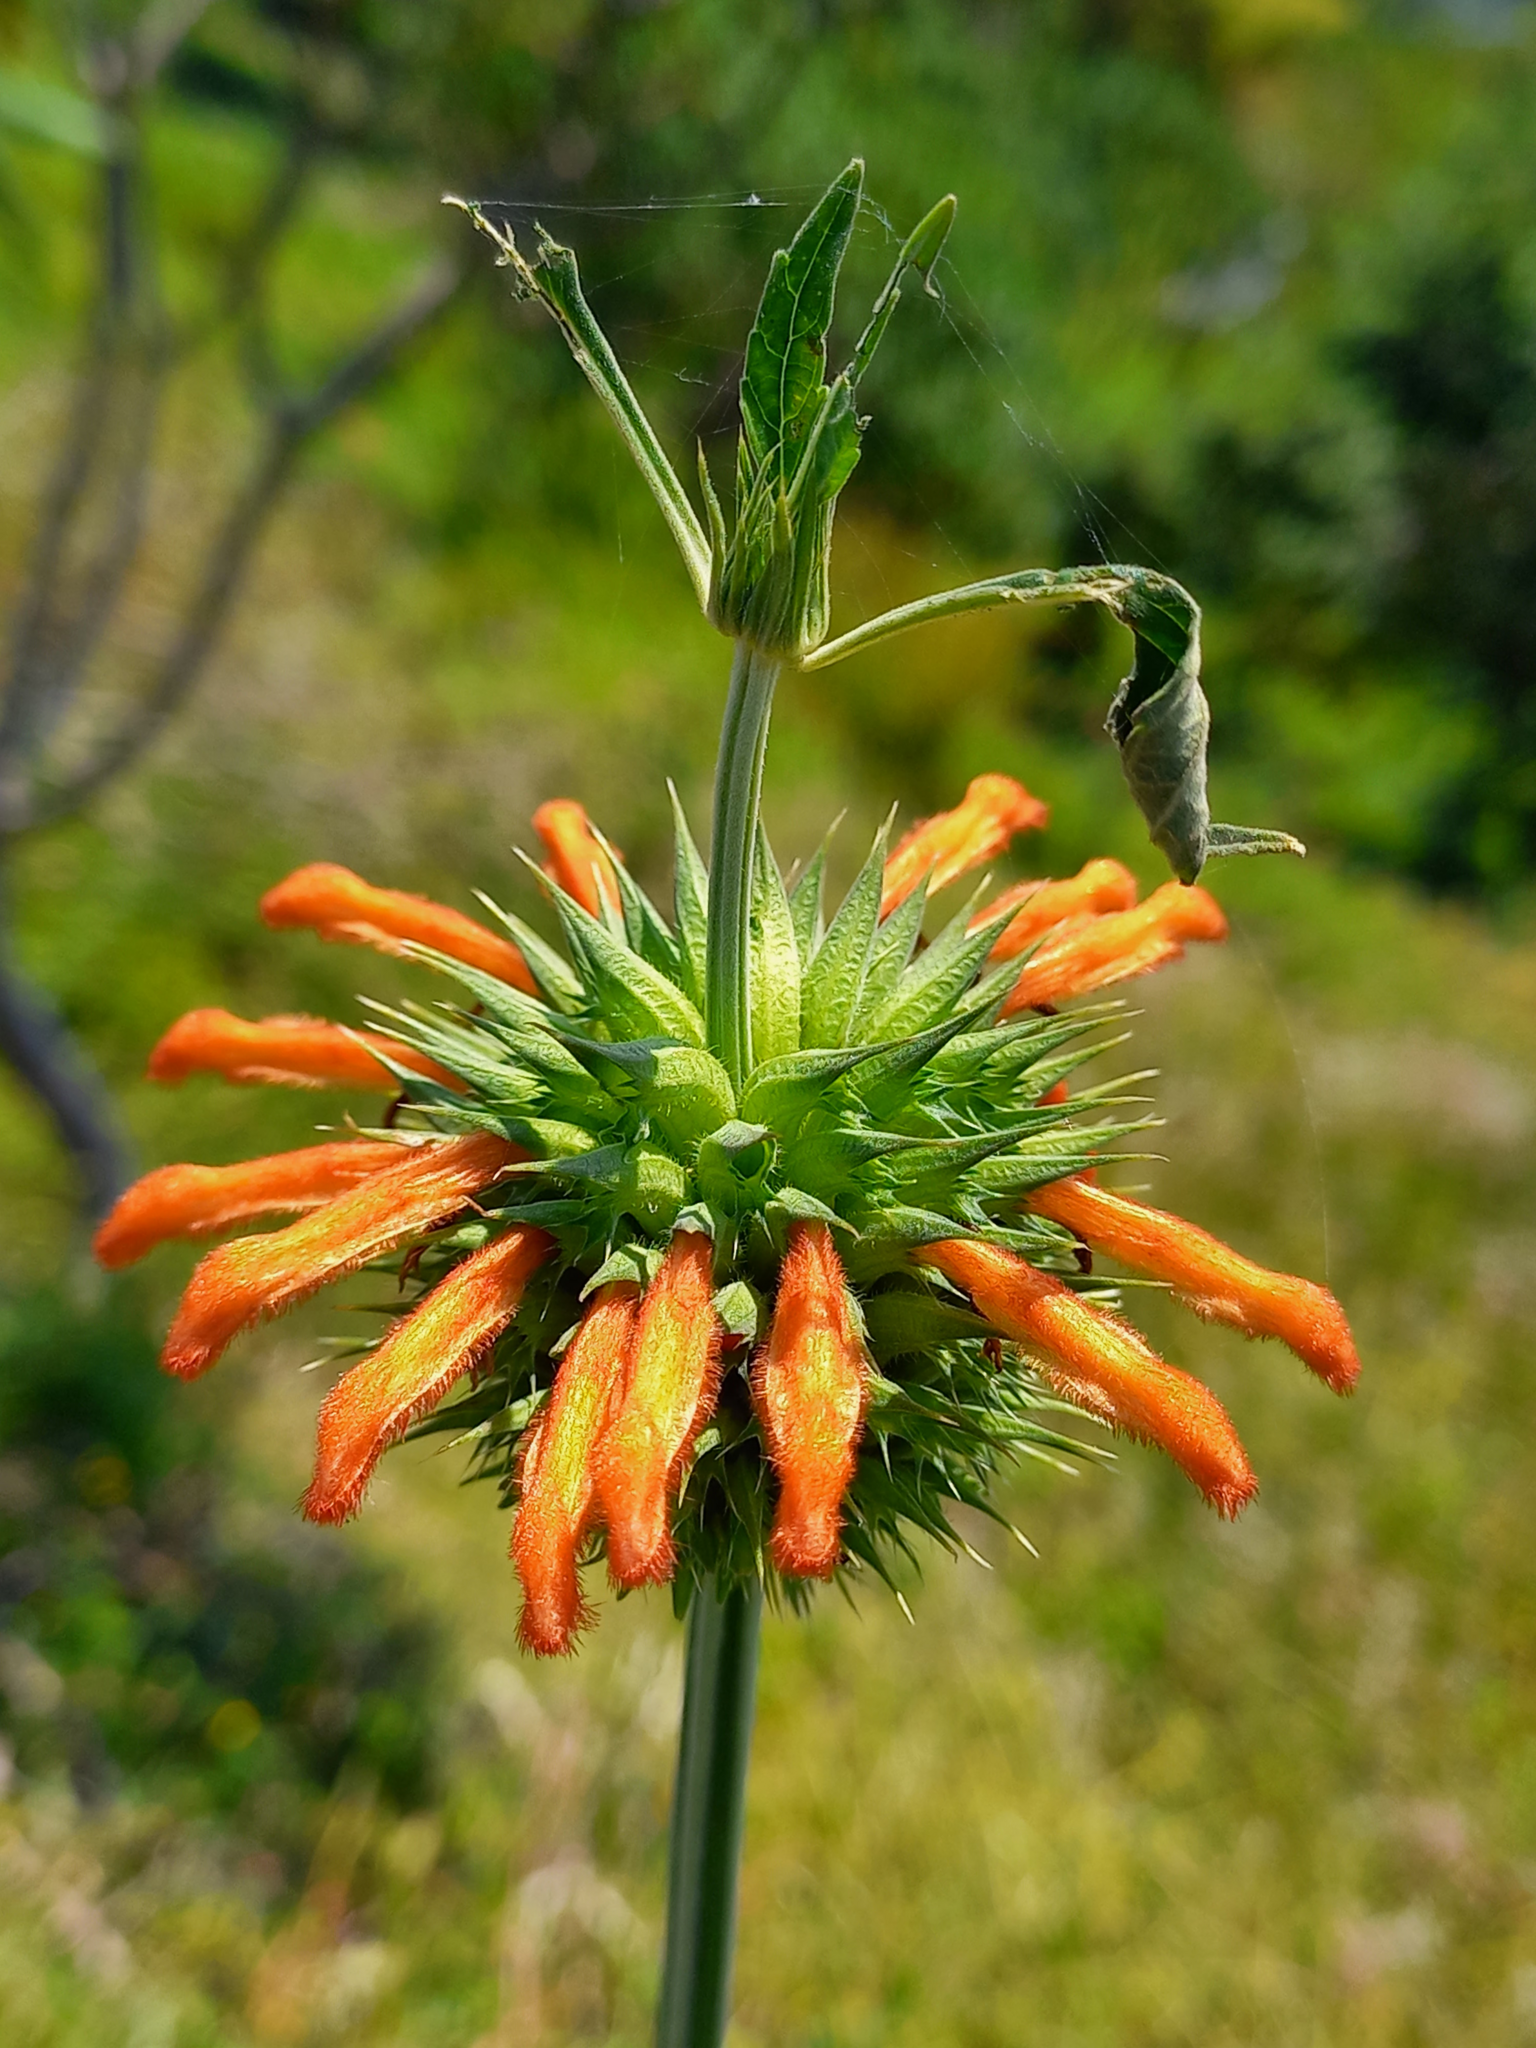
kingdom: Plantae
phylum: Tracheophyta
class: Magnoliopsida
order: Lamiales
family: Lamiaceae
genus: Leonotis
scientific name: Leonotis nepetifolia
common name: Christmas candlestick
